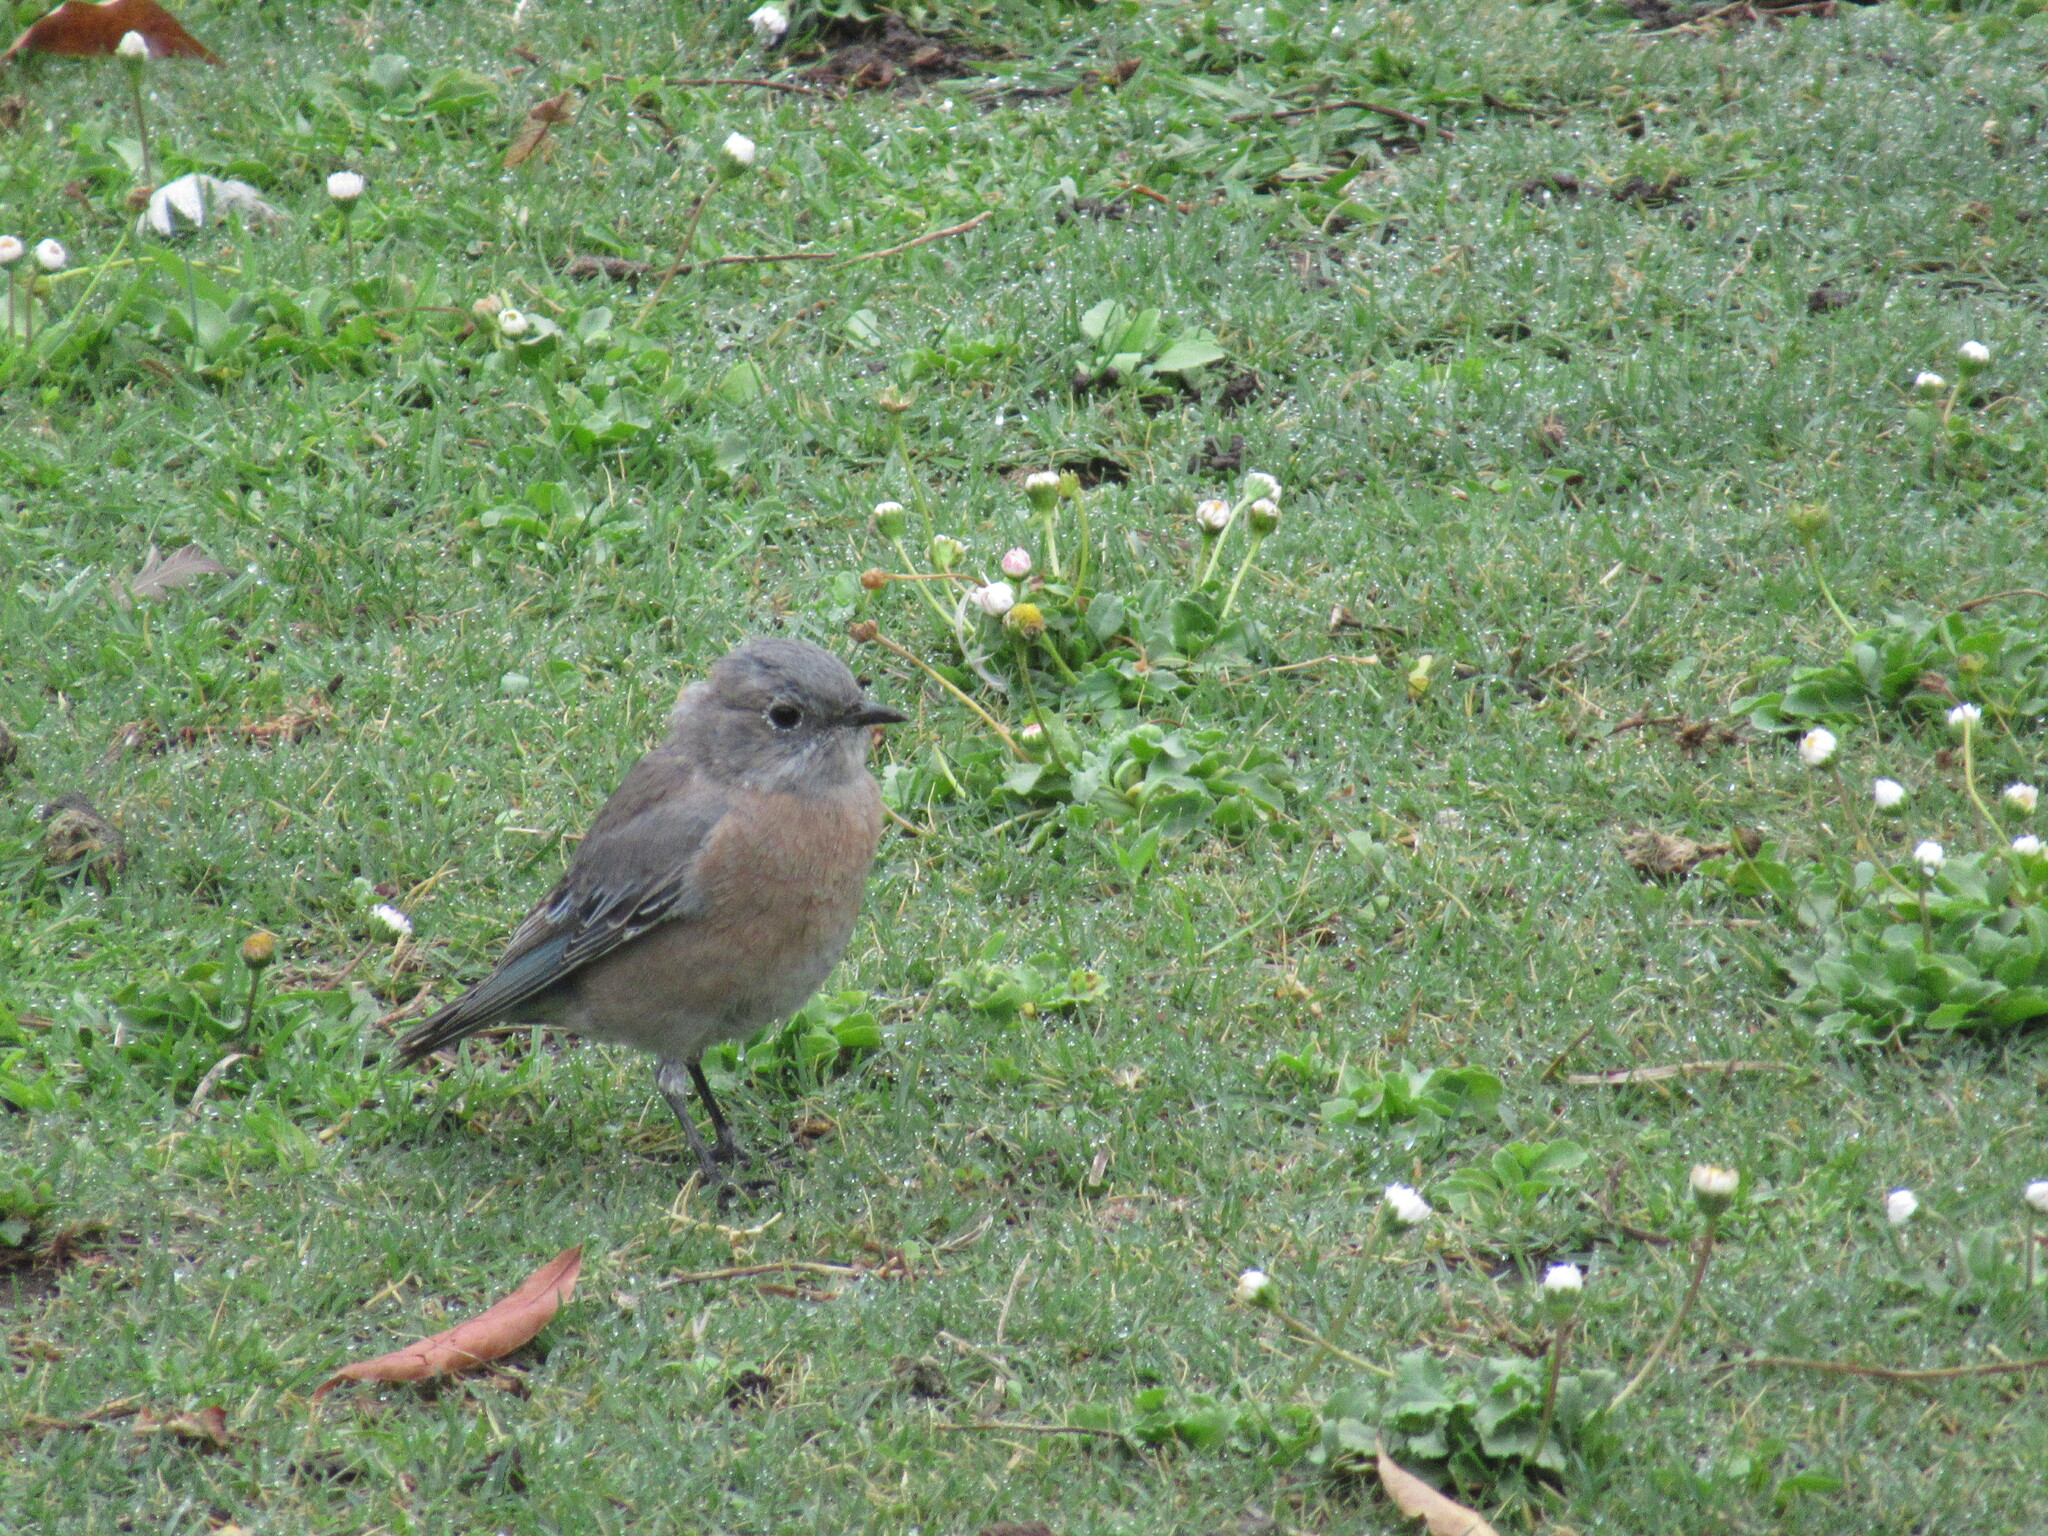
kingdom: Animalia
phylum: Chordata
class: Aves
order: Passeriformes
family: Turdidae
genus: Sialia
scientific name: Sialia mexicana
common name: Western bluebird
